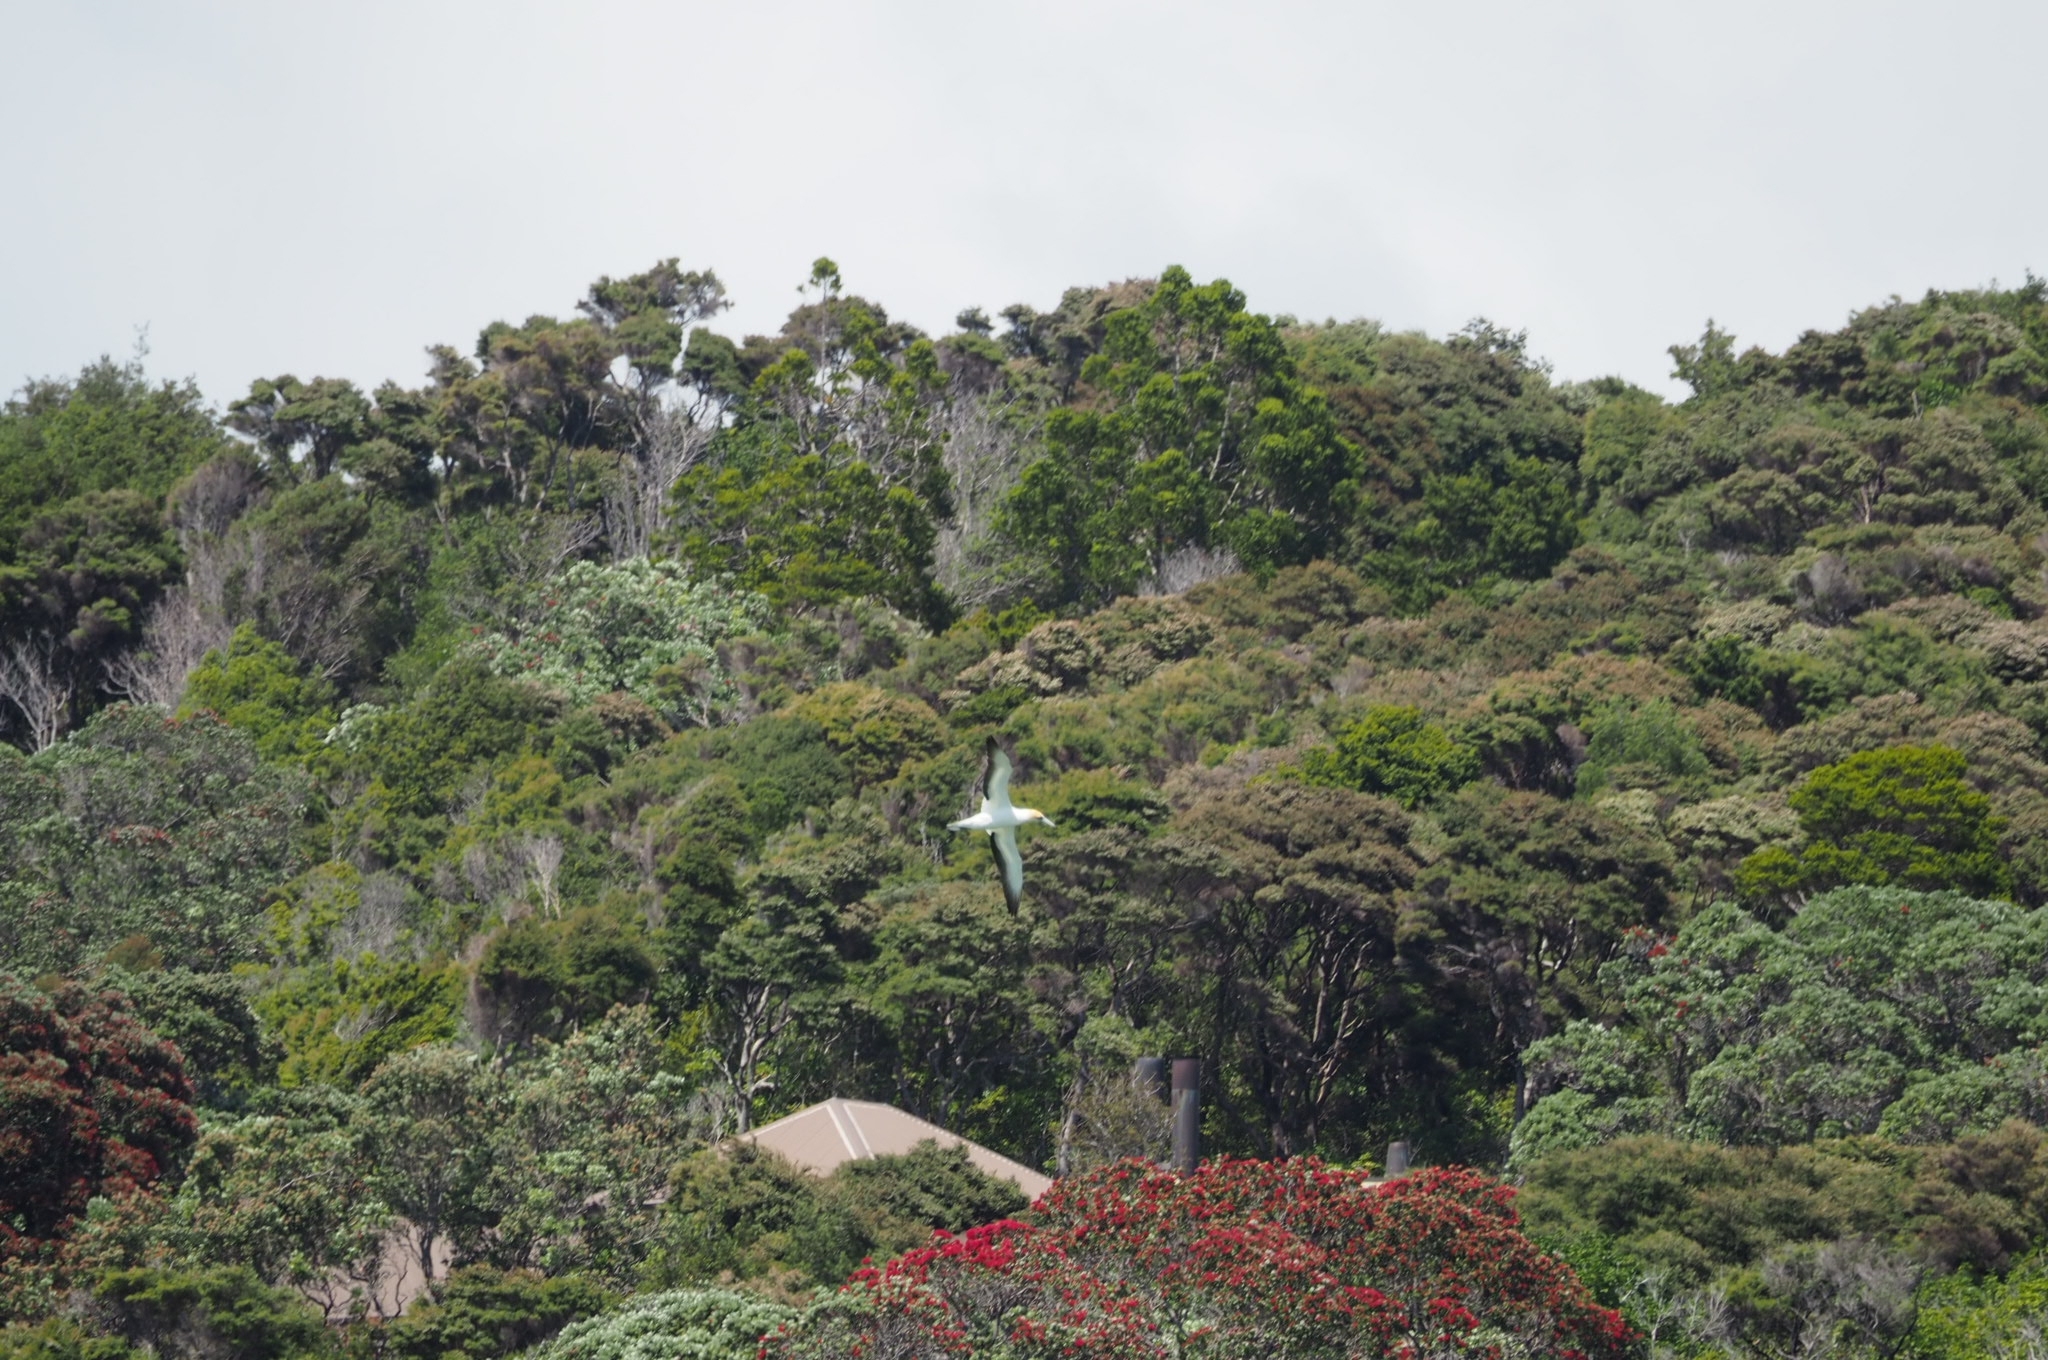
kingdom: Animalia
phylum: Chordata
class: Aves
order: Suliformes
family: Sulidae
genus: Morus
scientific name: Morus serrator
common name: Australasian gannet
